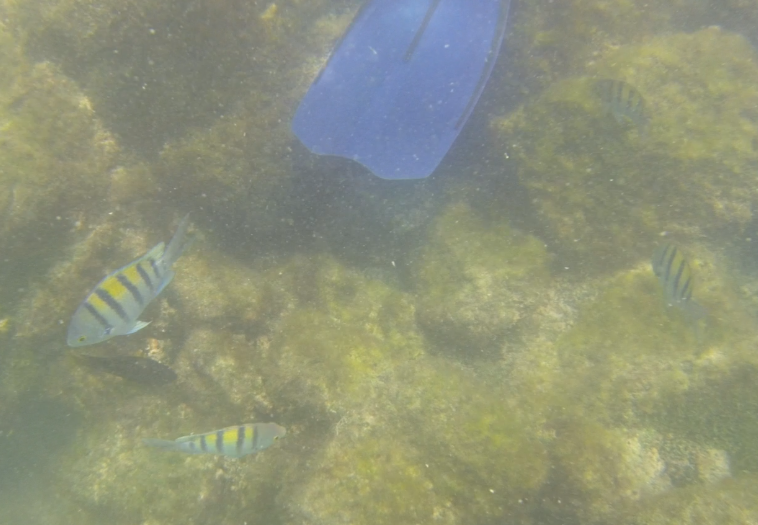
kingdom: Animalia
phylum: Chordata
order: Perciformes
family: Pomacentridae
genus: Abudefduf
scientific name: Abudefduf troschelii
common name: Panamic sergeant major
